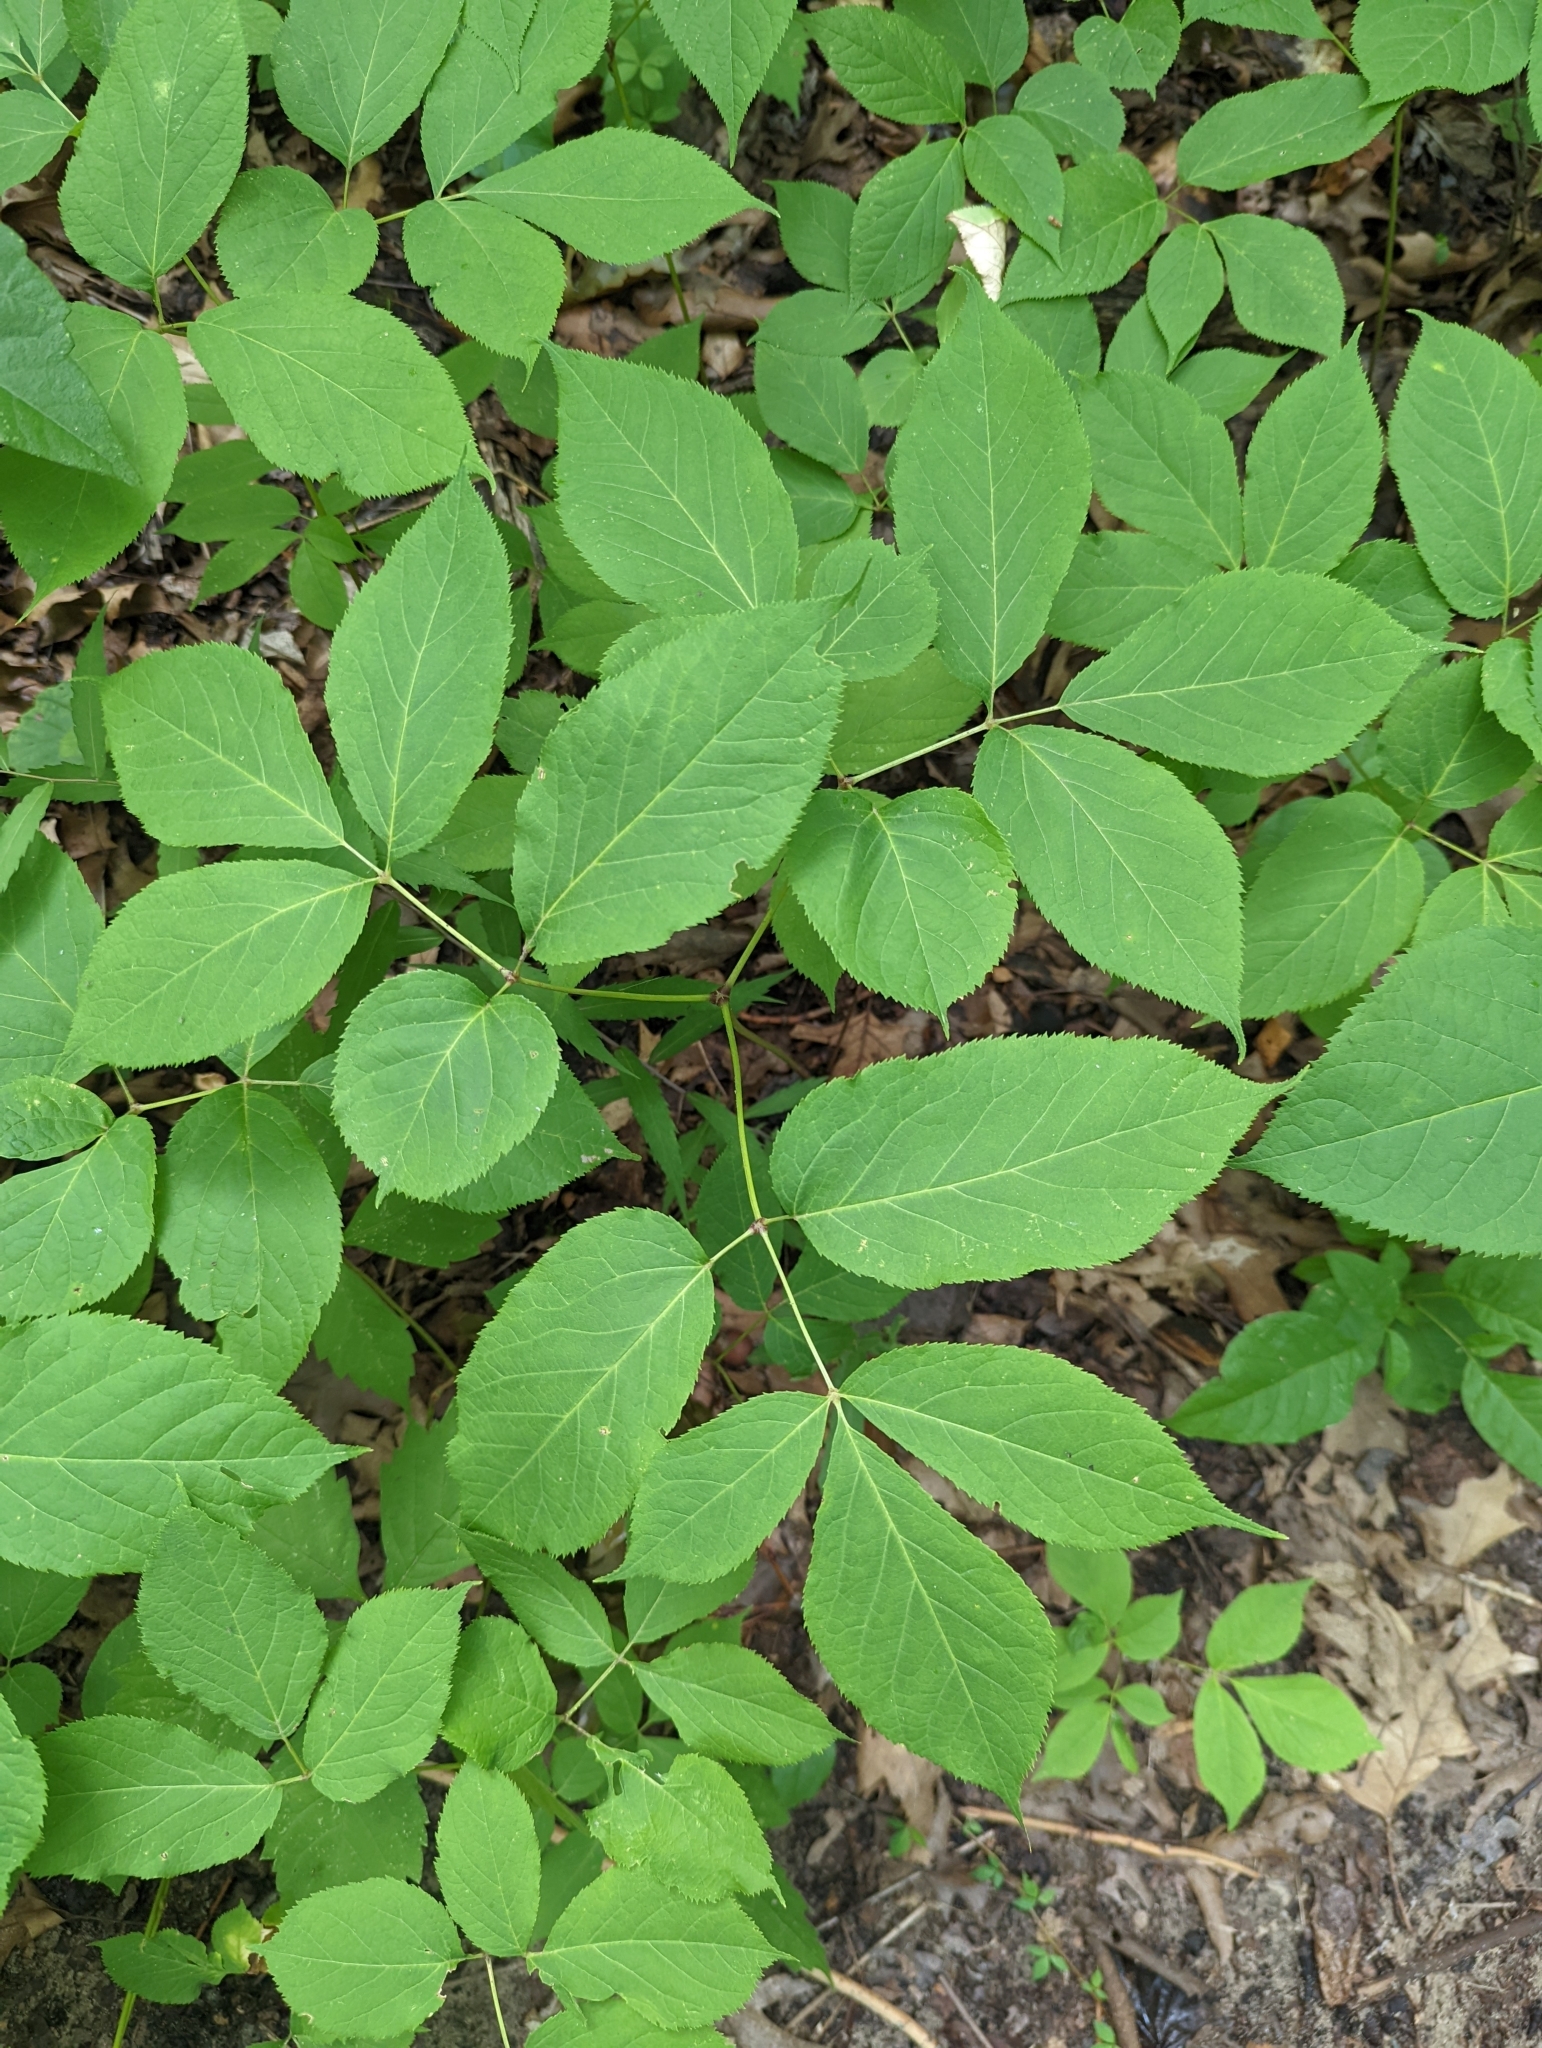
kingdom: Plantae
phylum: Tracheophyta
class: Magnoliopsida
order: Apiales
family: Araliaceae
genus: Aralia
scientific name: Aralia nudicaulis
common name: Wild sarsaparilla
